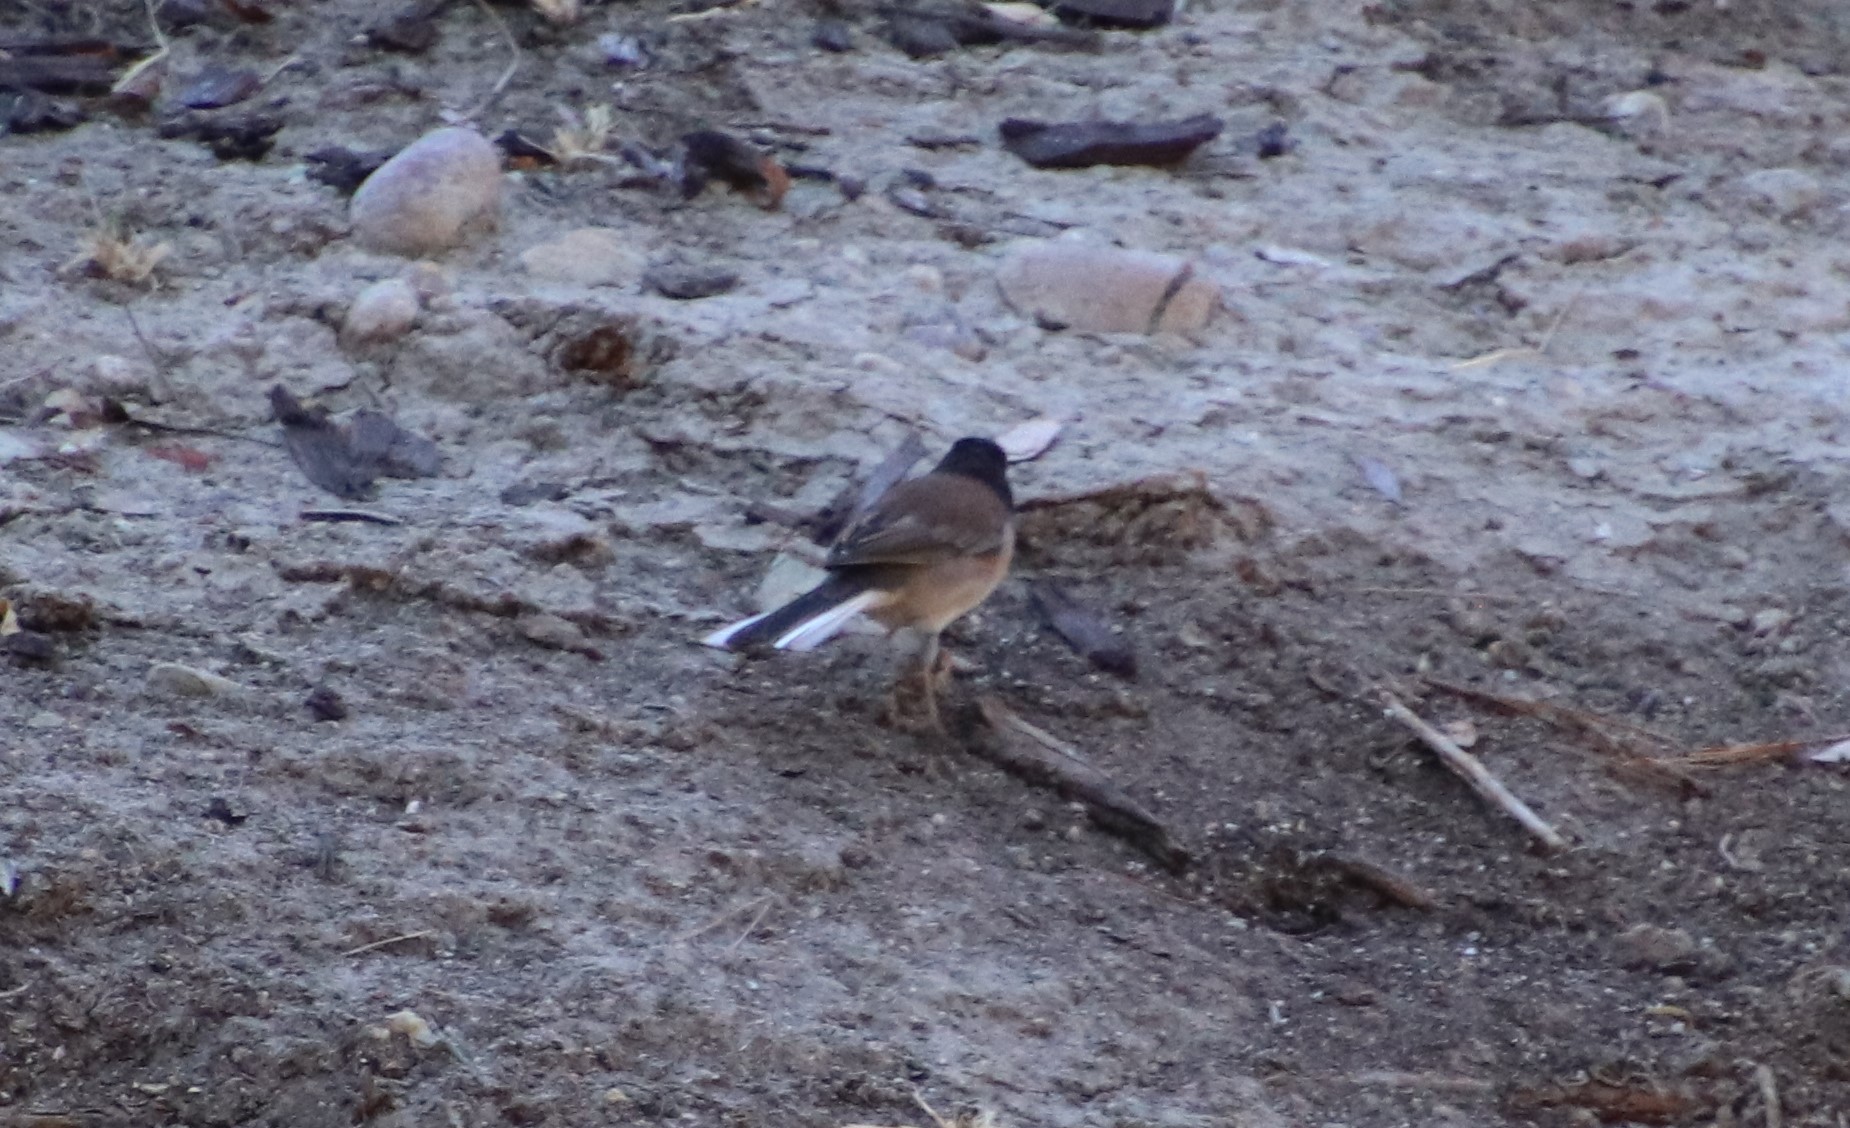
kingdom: Animalia
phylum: Chordata
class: Aves
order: Passeriformes
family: Passerellidae
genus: Junco
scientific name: Junco hyemalis
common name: Dark-eyed junco
